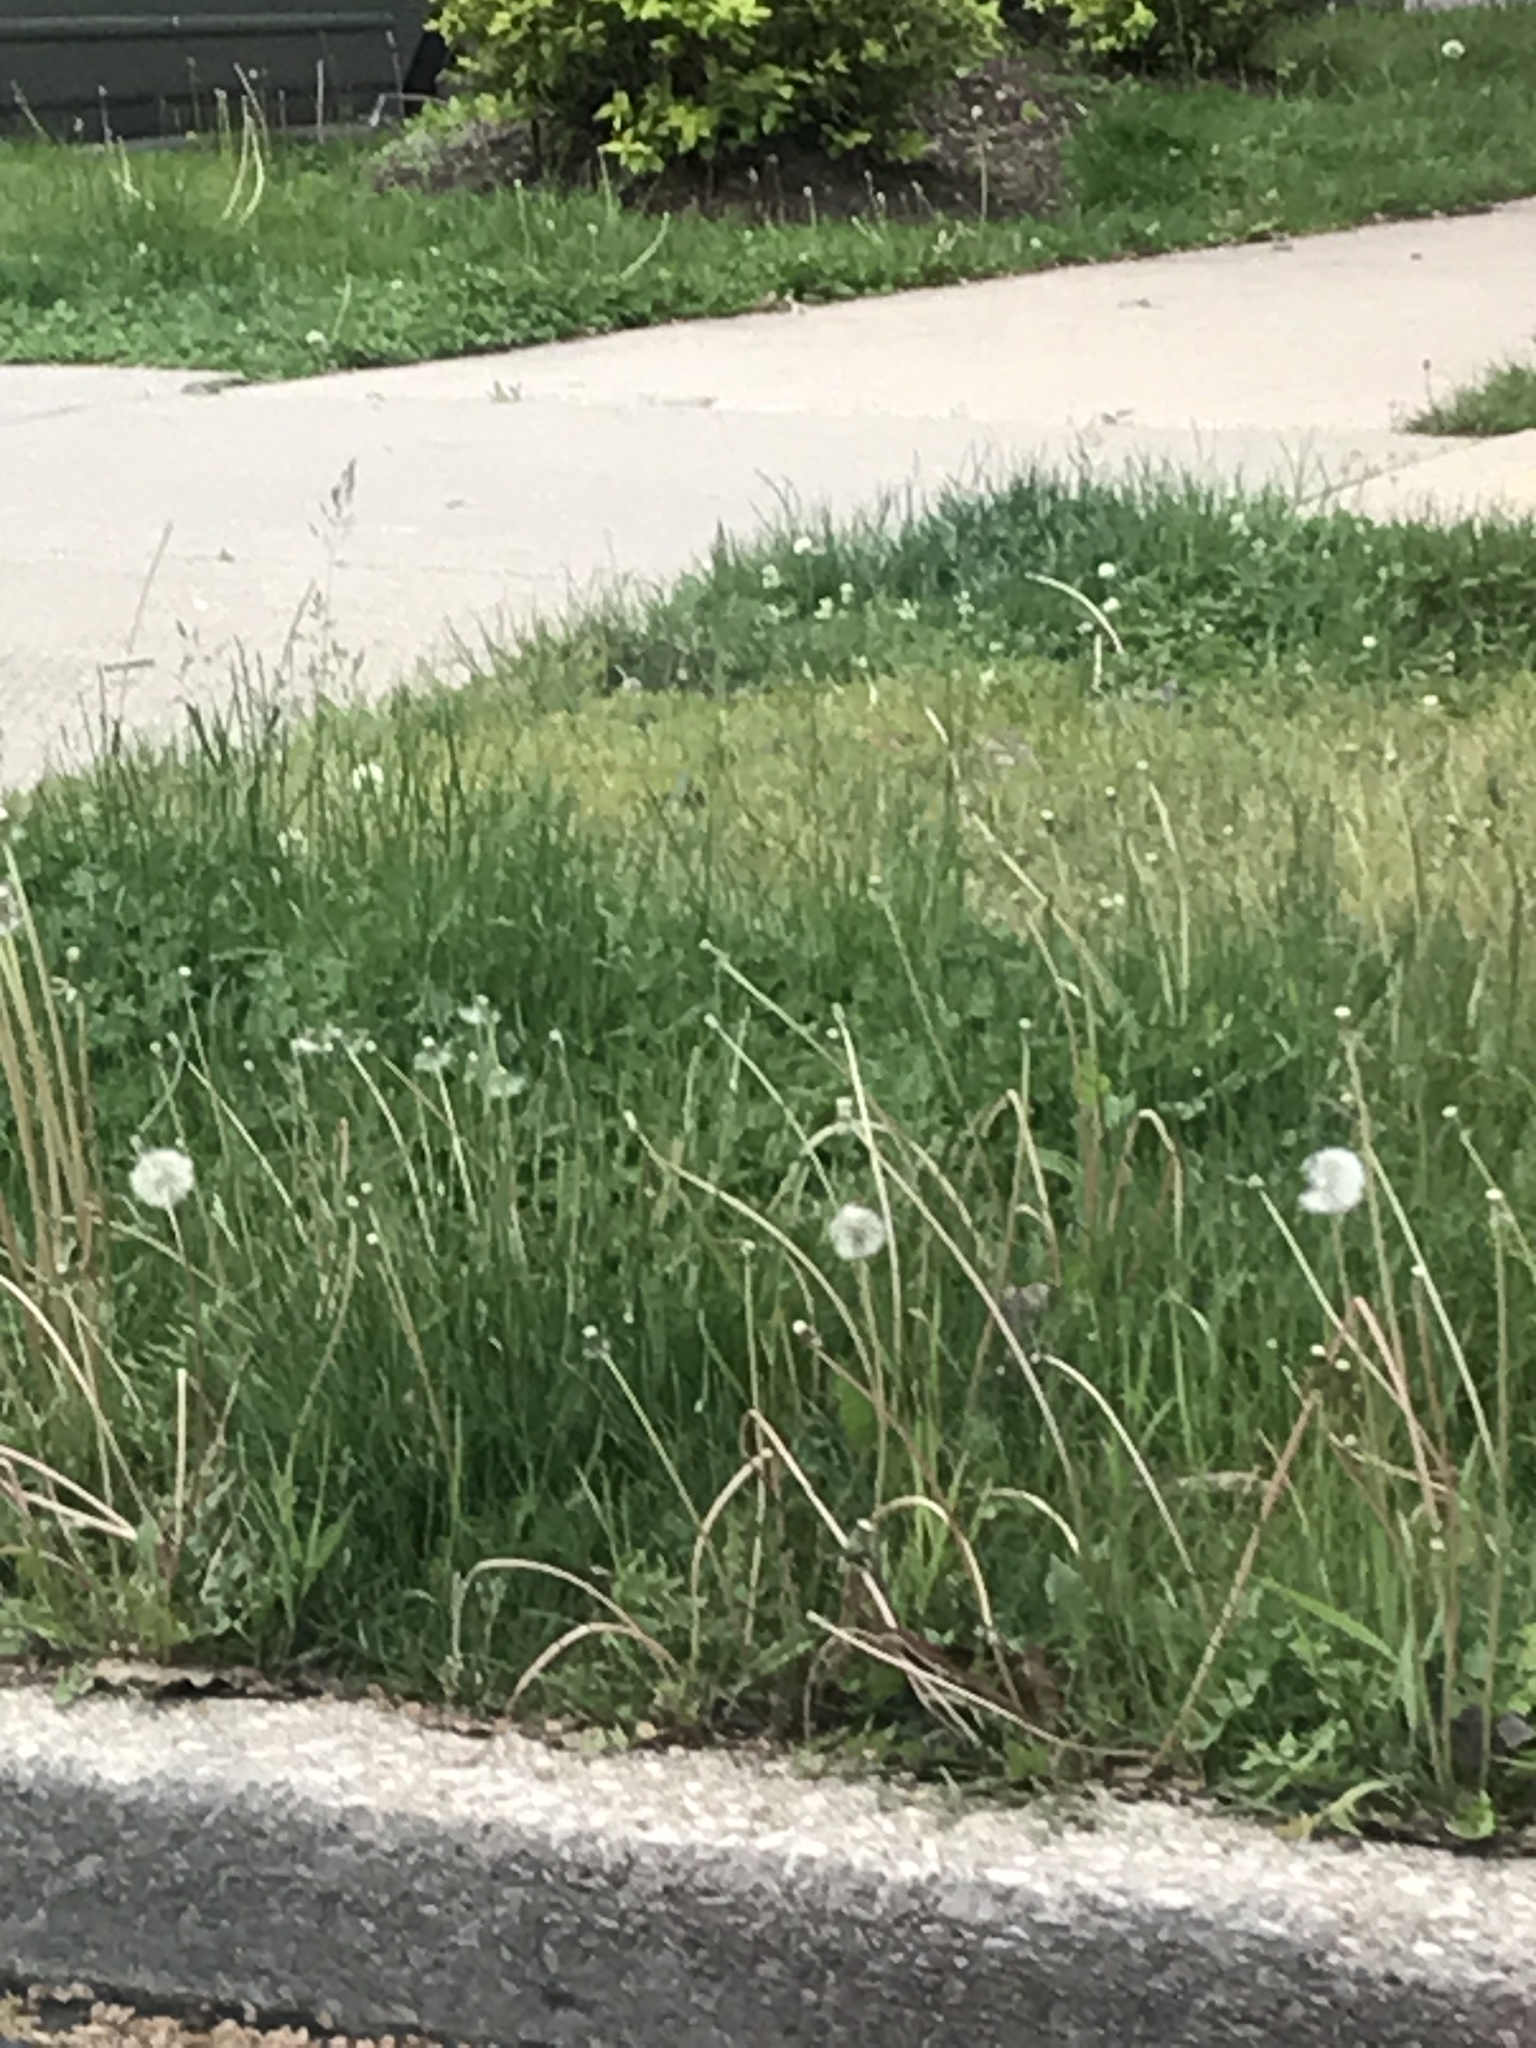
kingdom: Plantae
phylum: Tracheophyta
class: Magnoliopsida
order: Asterales
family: Asteraceae
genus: Taraxacum
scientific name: Taraxacum officinale
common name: Common dandelion
